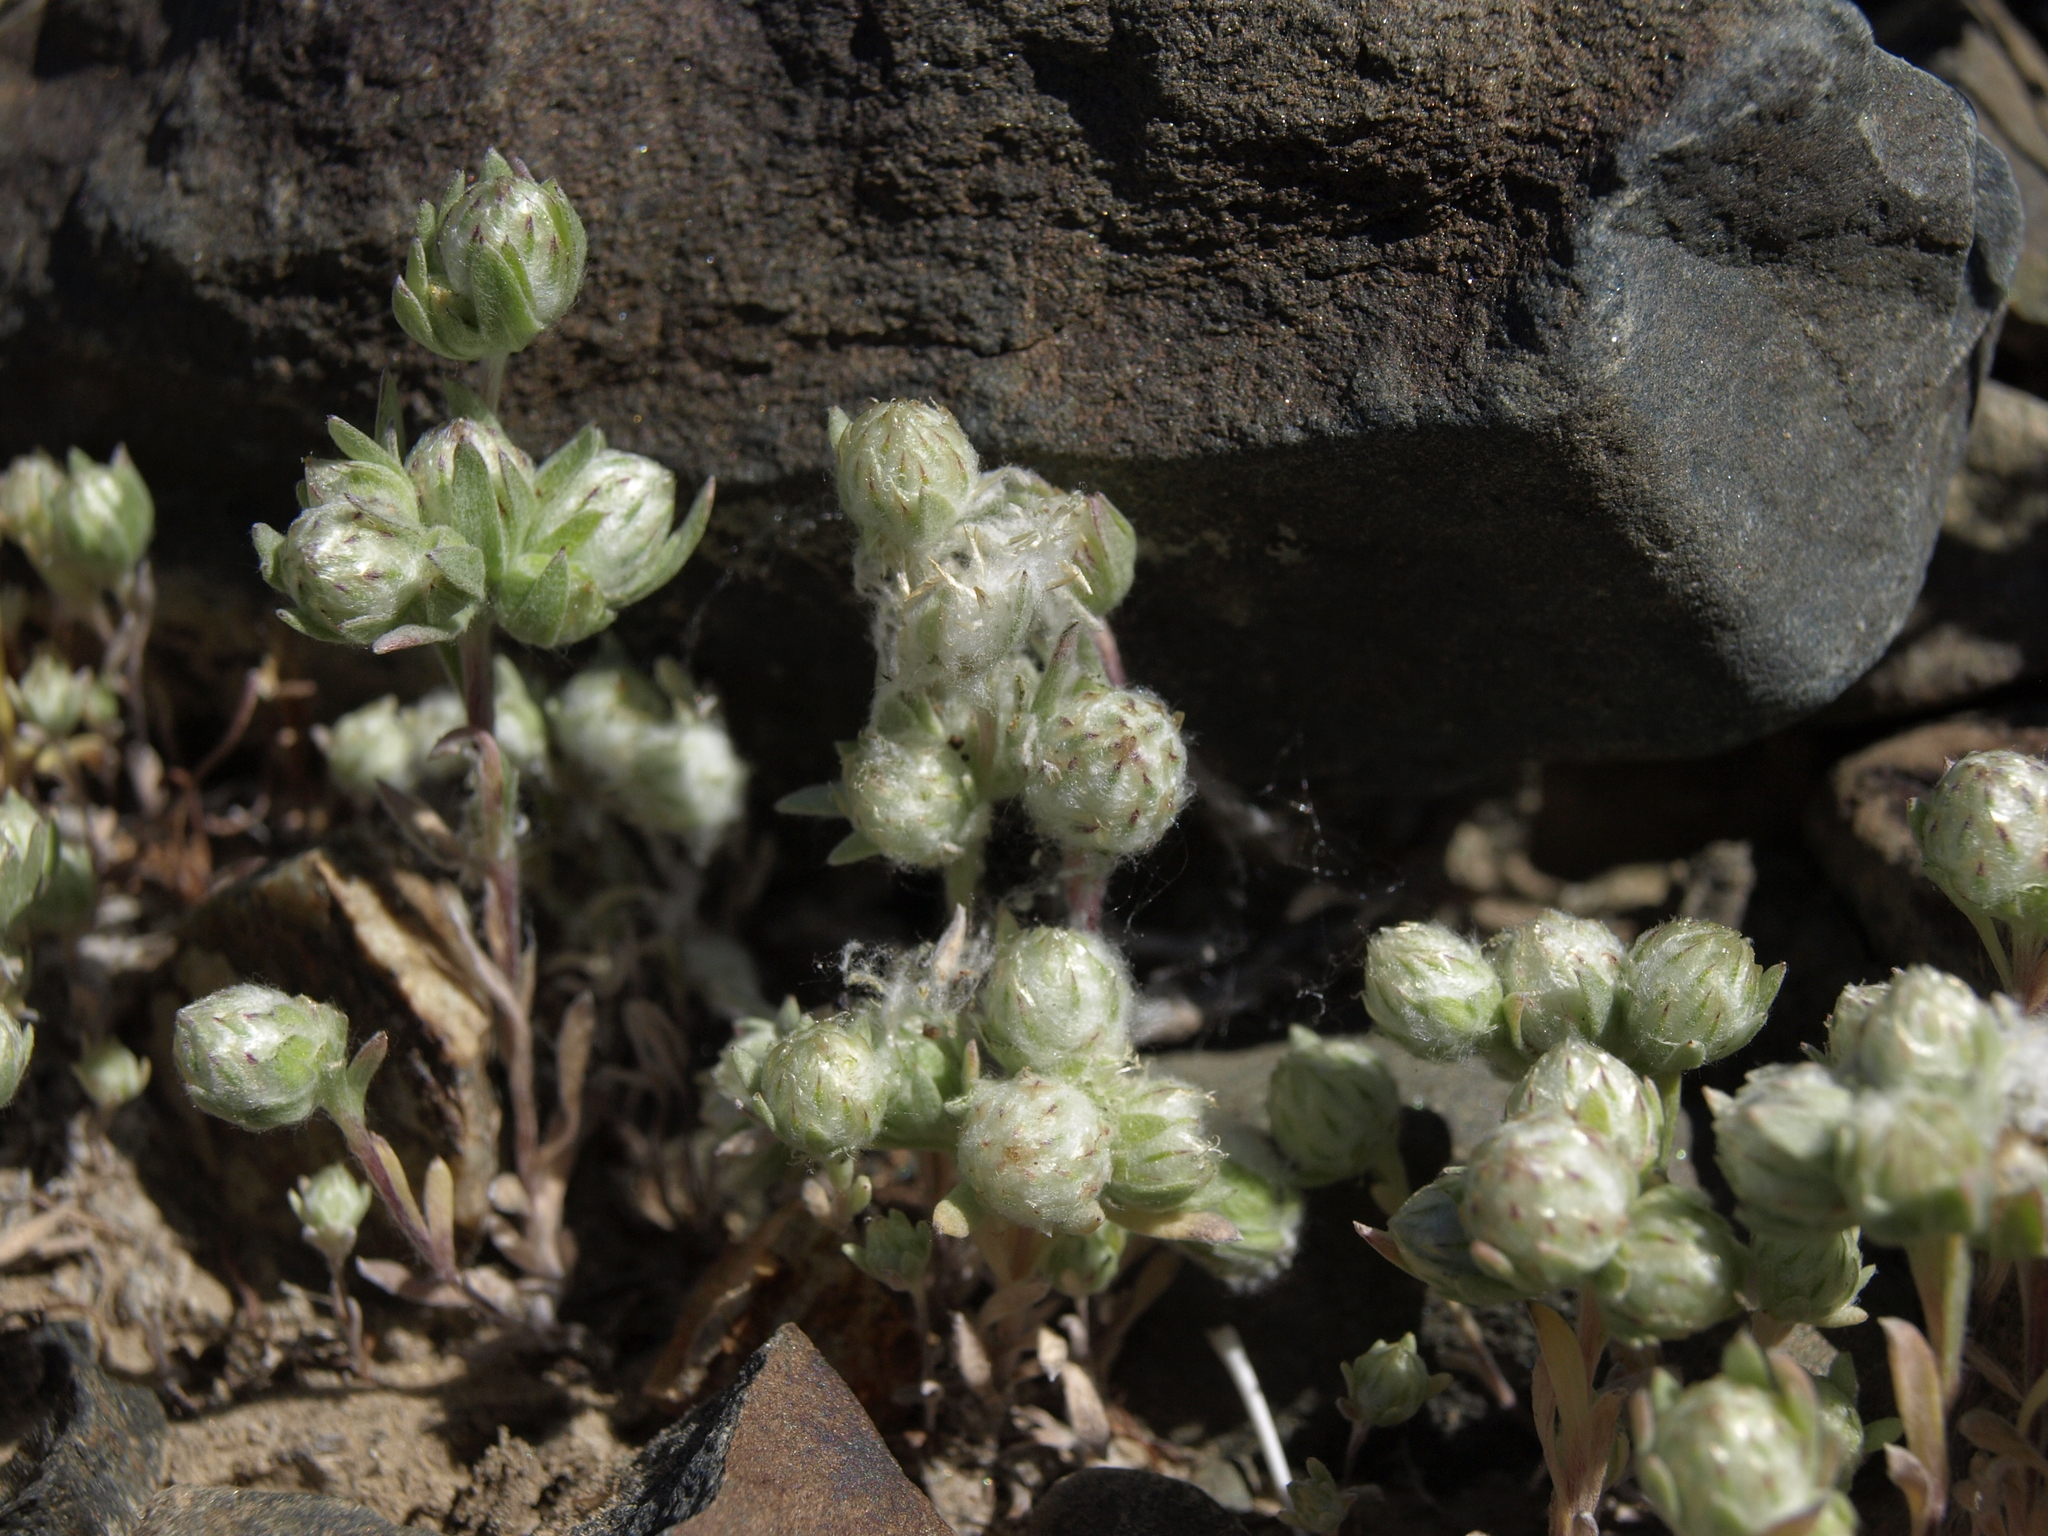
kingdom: Plantae
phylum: Tracheophyta
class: Magnoliopsida
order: Asterales
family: Asteraceae
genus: Stylocline
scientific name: Stylocline micropoides
